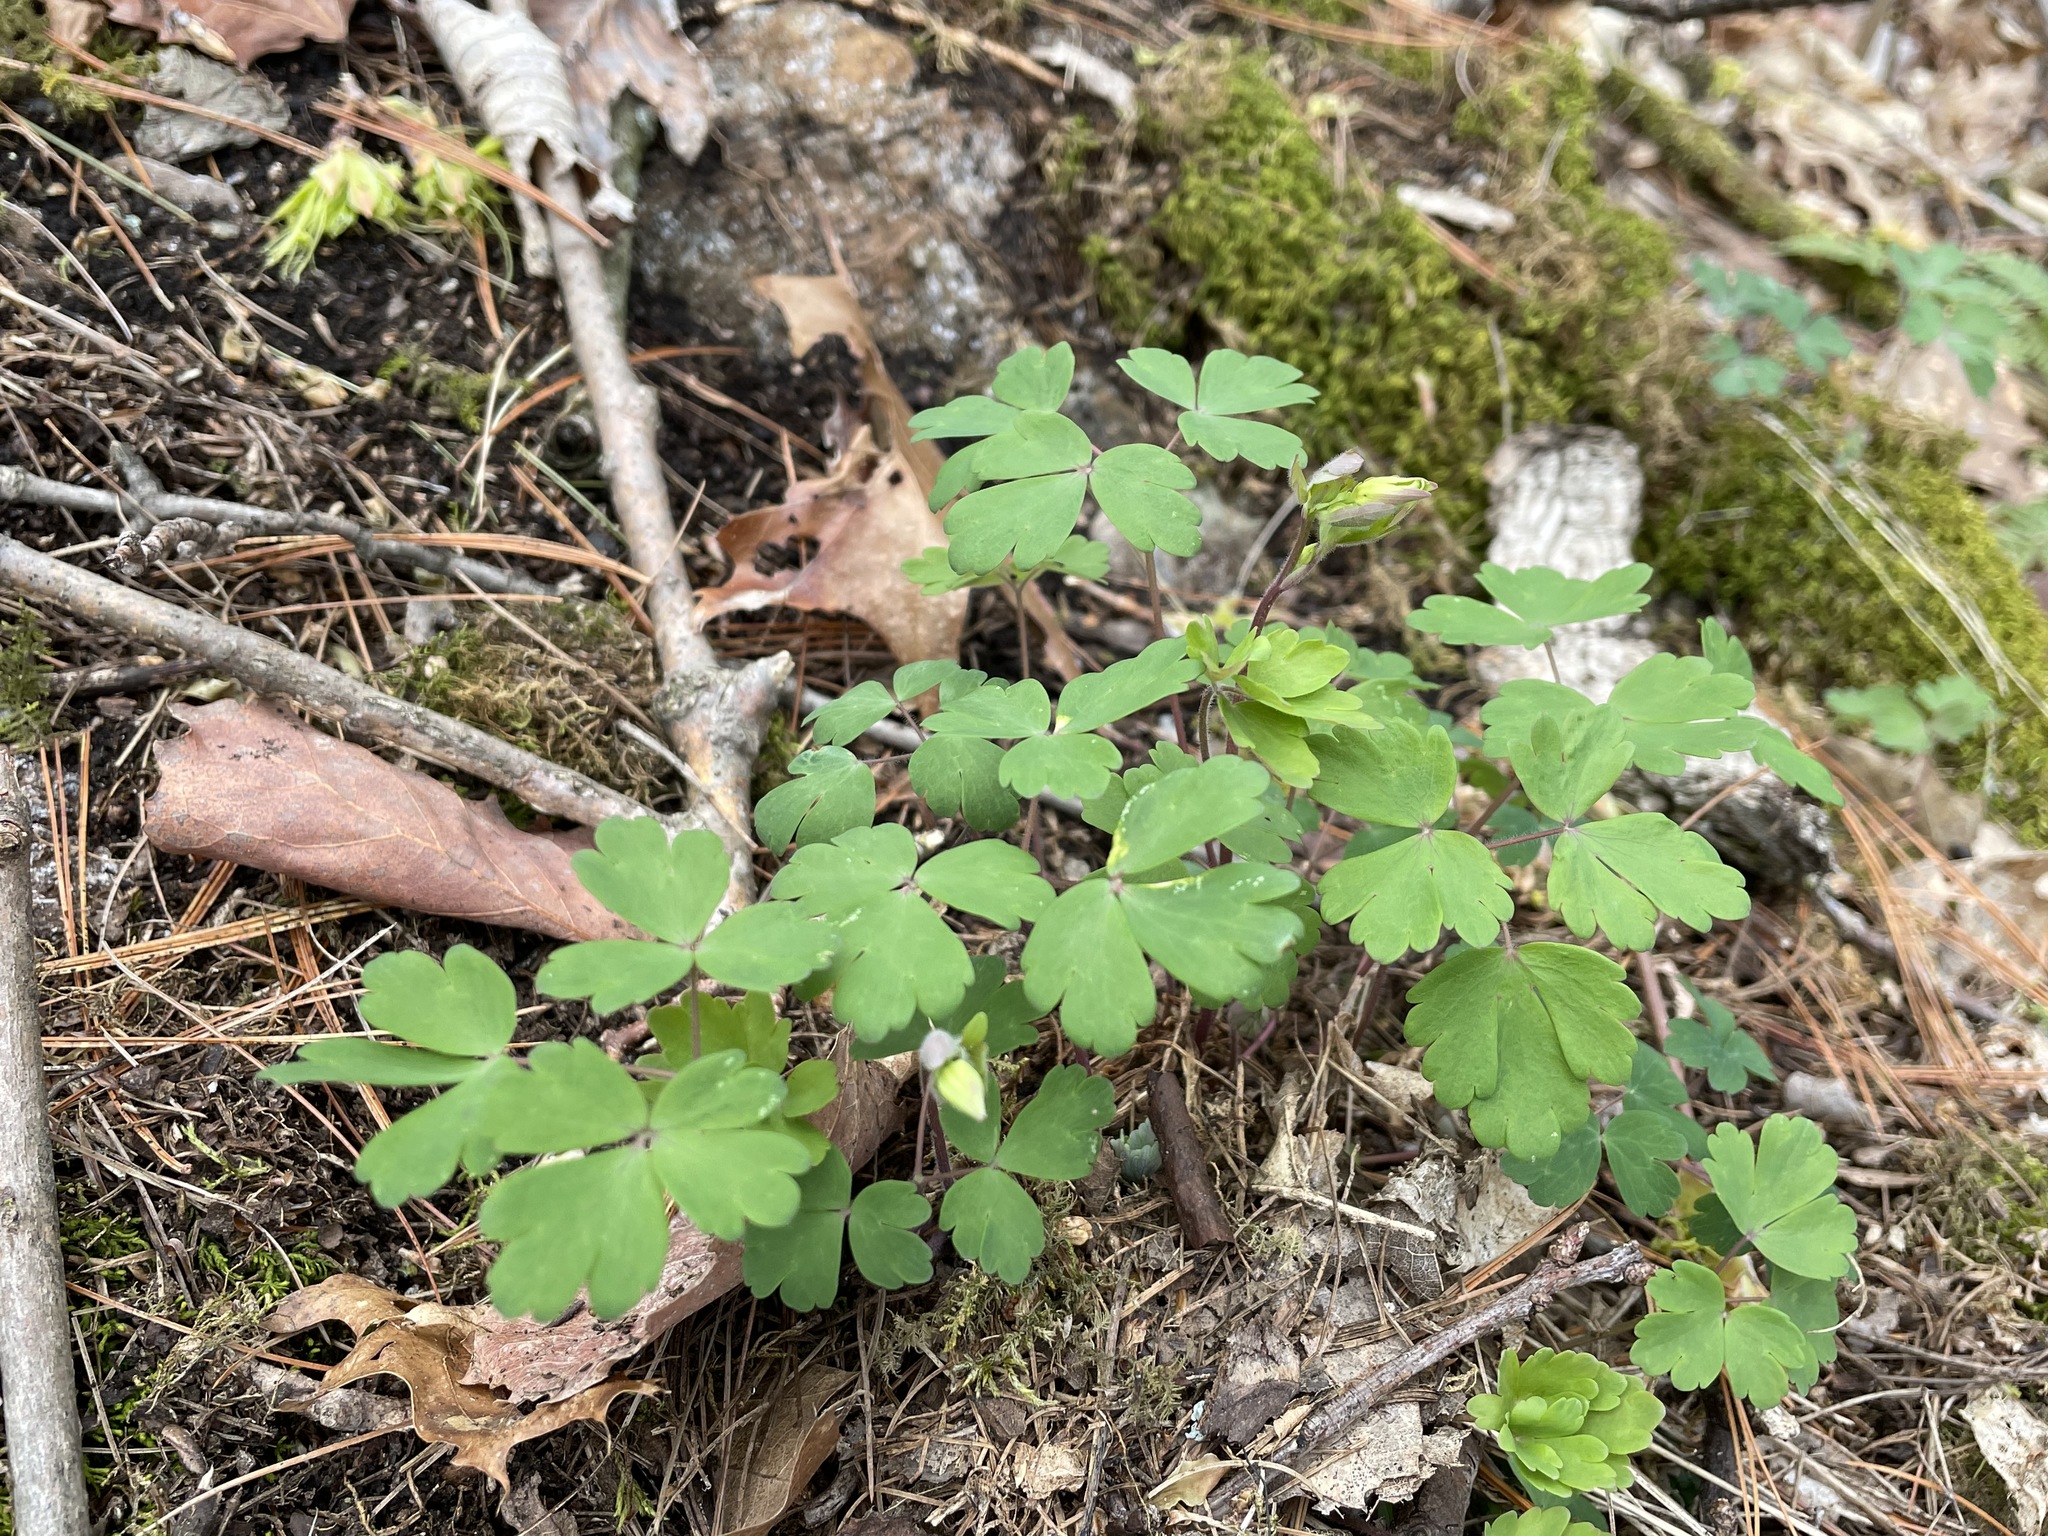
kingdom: Plantae
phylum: Tracheophyta
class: Magnoliopsida
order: Ranunculales
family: Ranunculaceae
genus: Aquilegia
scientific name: Aquilegia canadensis
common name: American columbine
